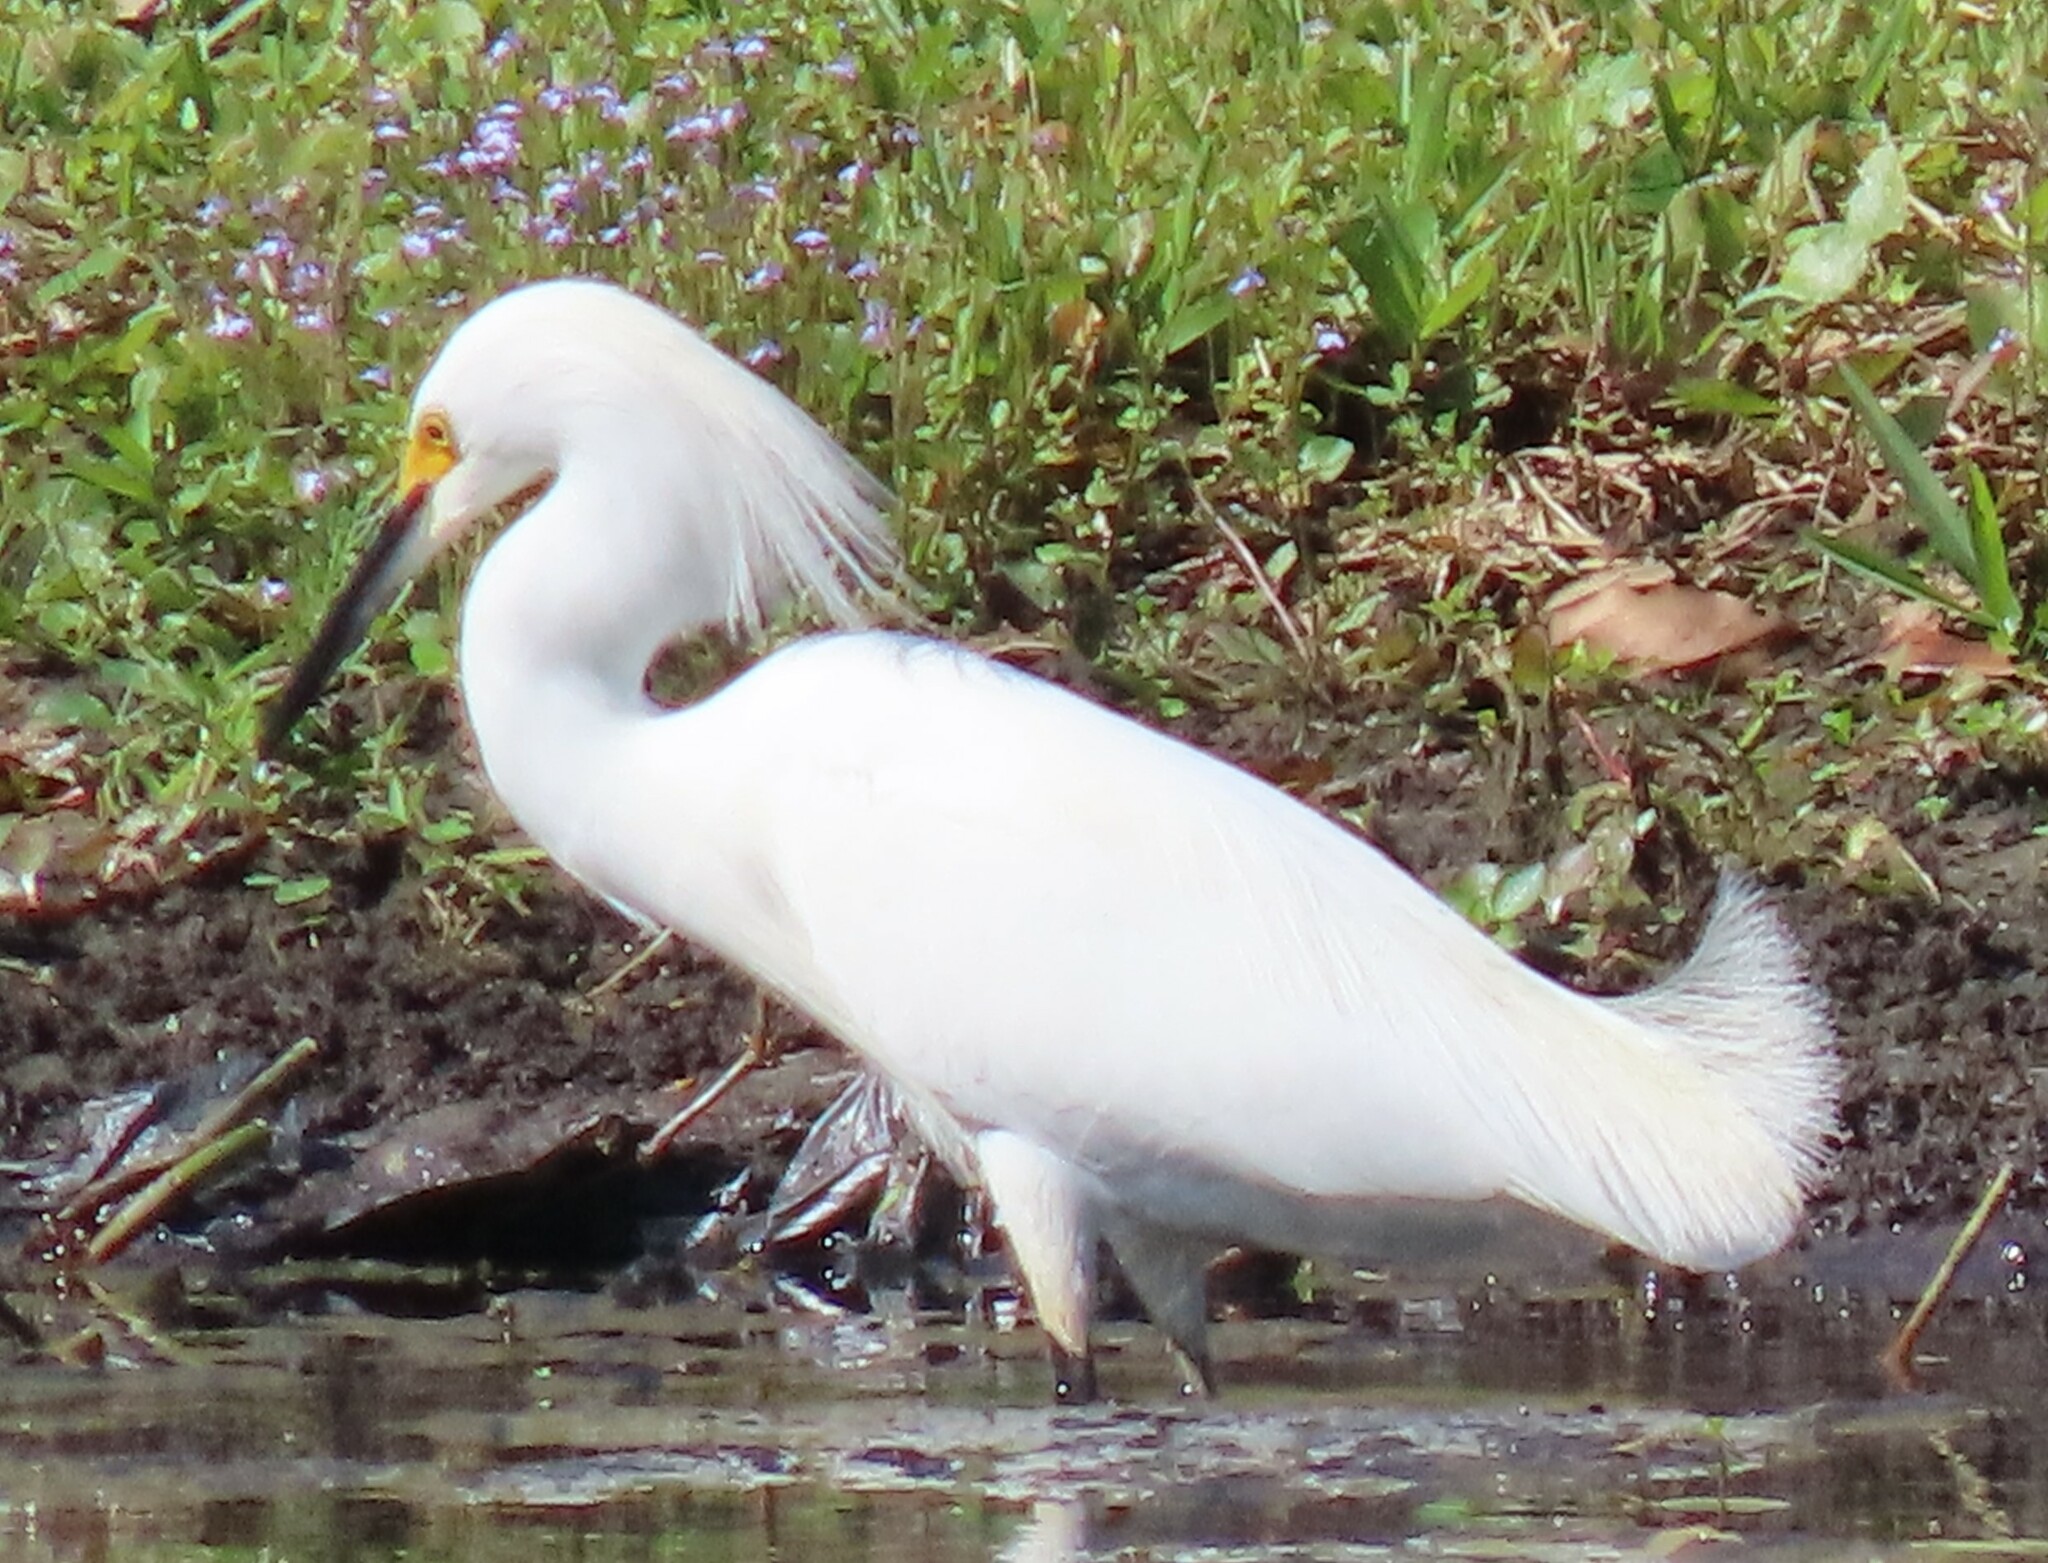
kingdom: Animalia
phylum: Chordata
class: Aves
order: Pelecaniformes
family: Ardeidae
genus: Egretta
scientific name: Egretta thula
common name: Snowy egret
